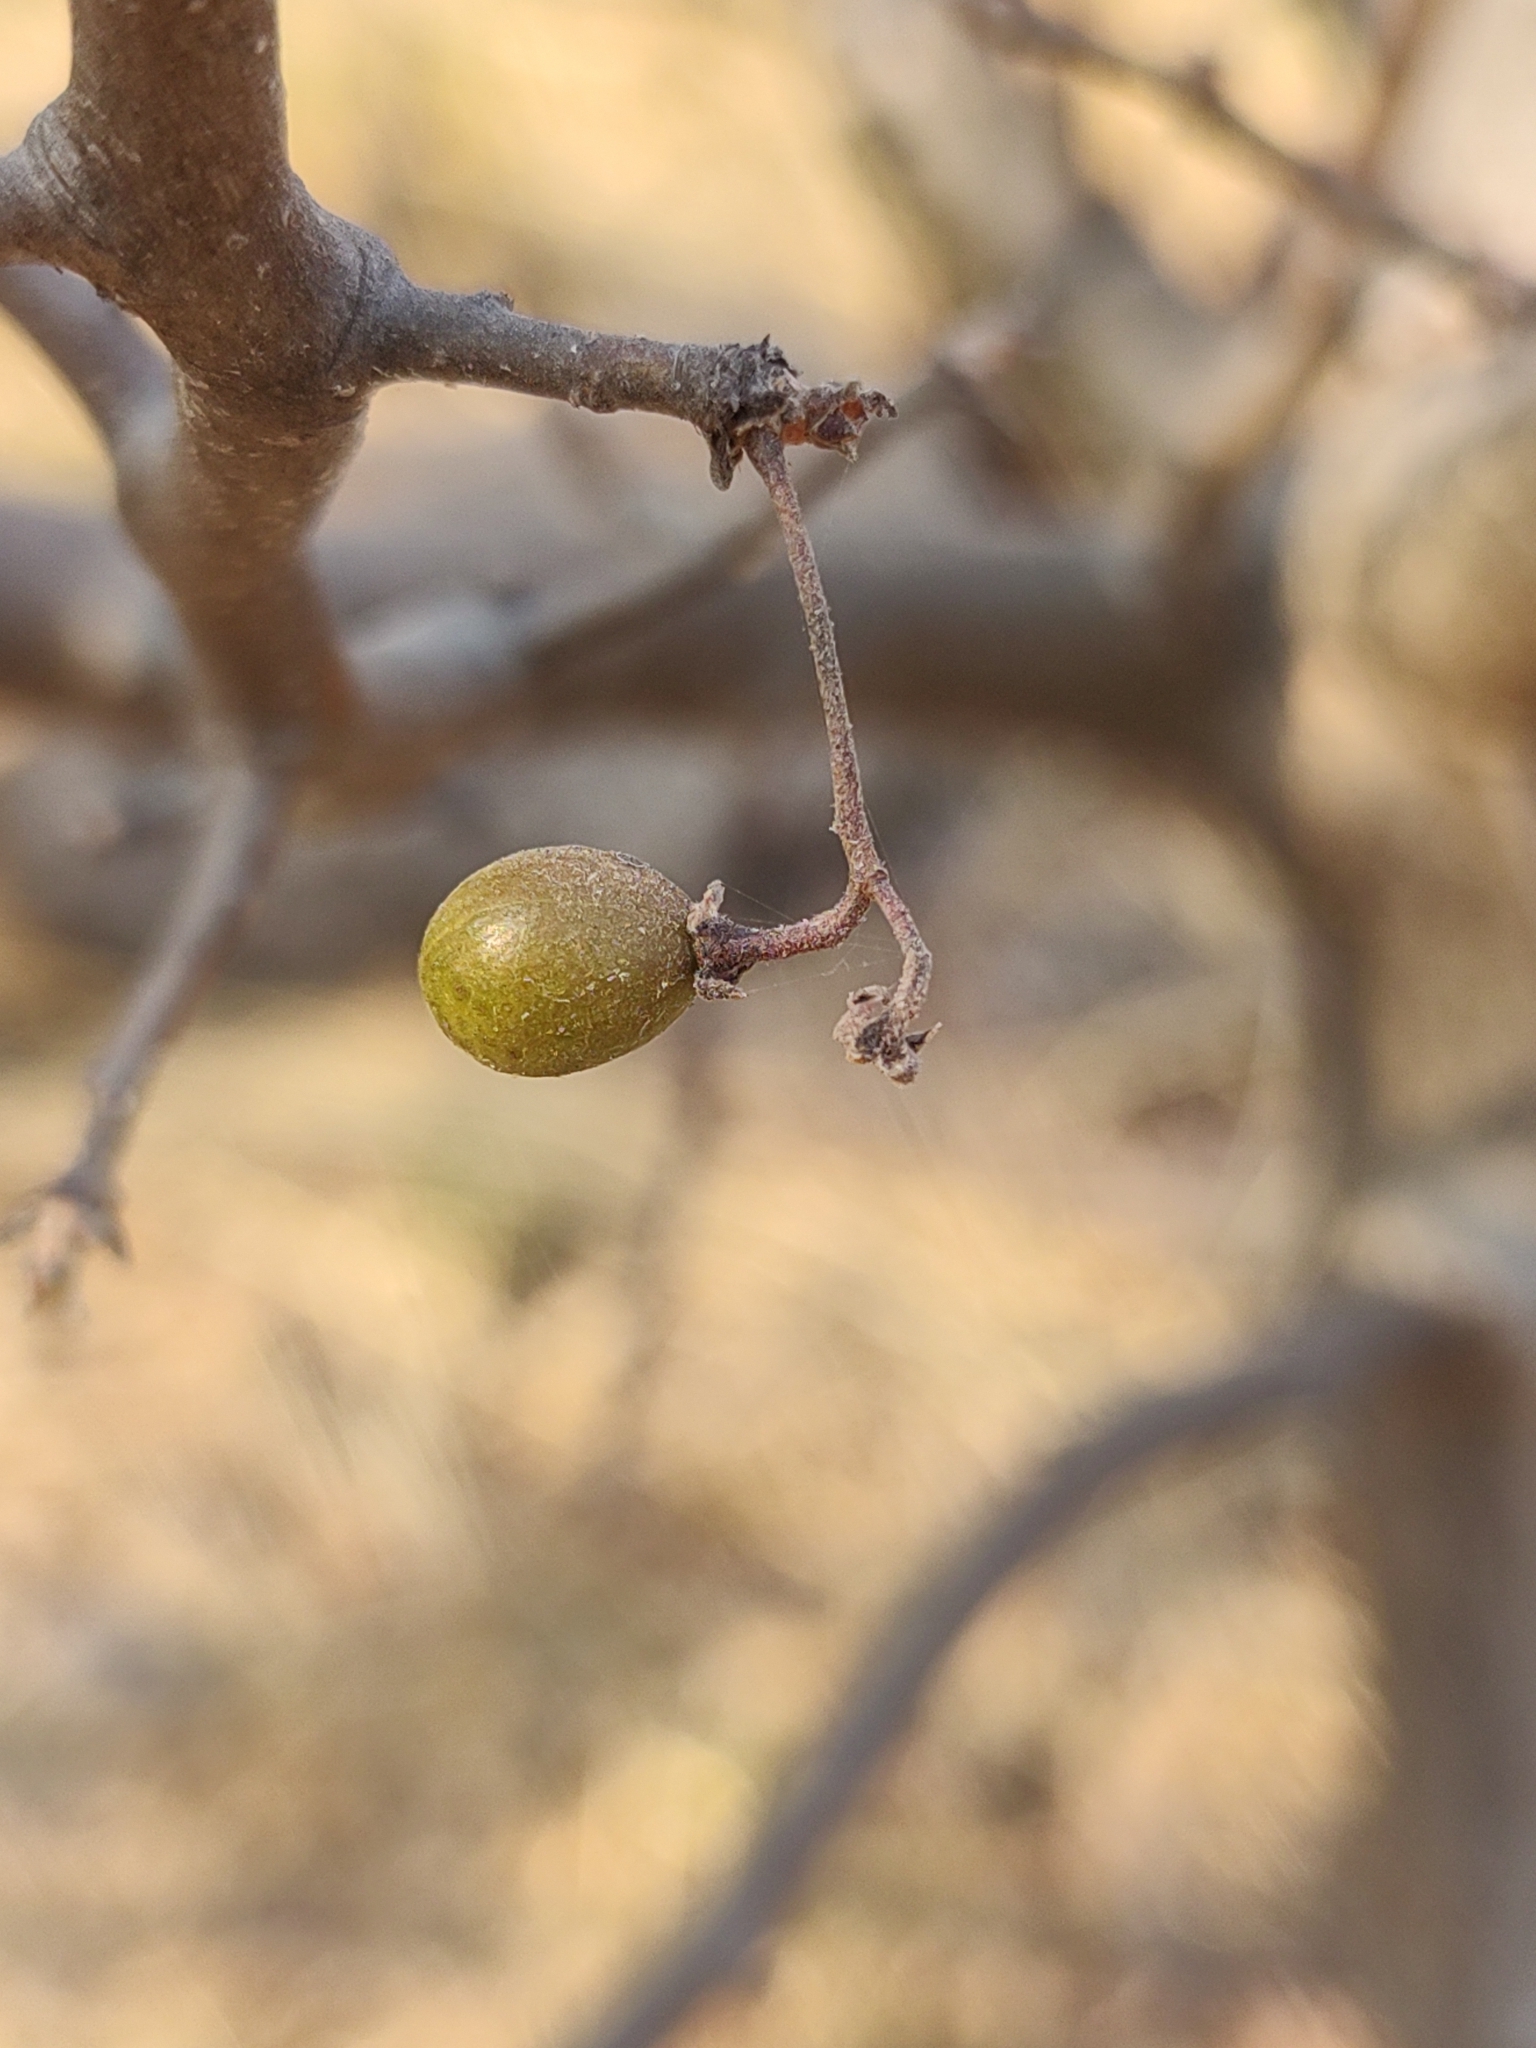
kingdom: Plantae
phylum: Tracheophyta
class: Magnoliopsida
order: Sapindales
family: Burseraceae
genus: Bursera
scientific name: Bursera bipinnata
